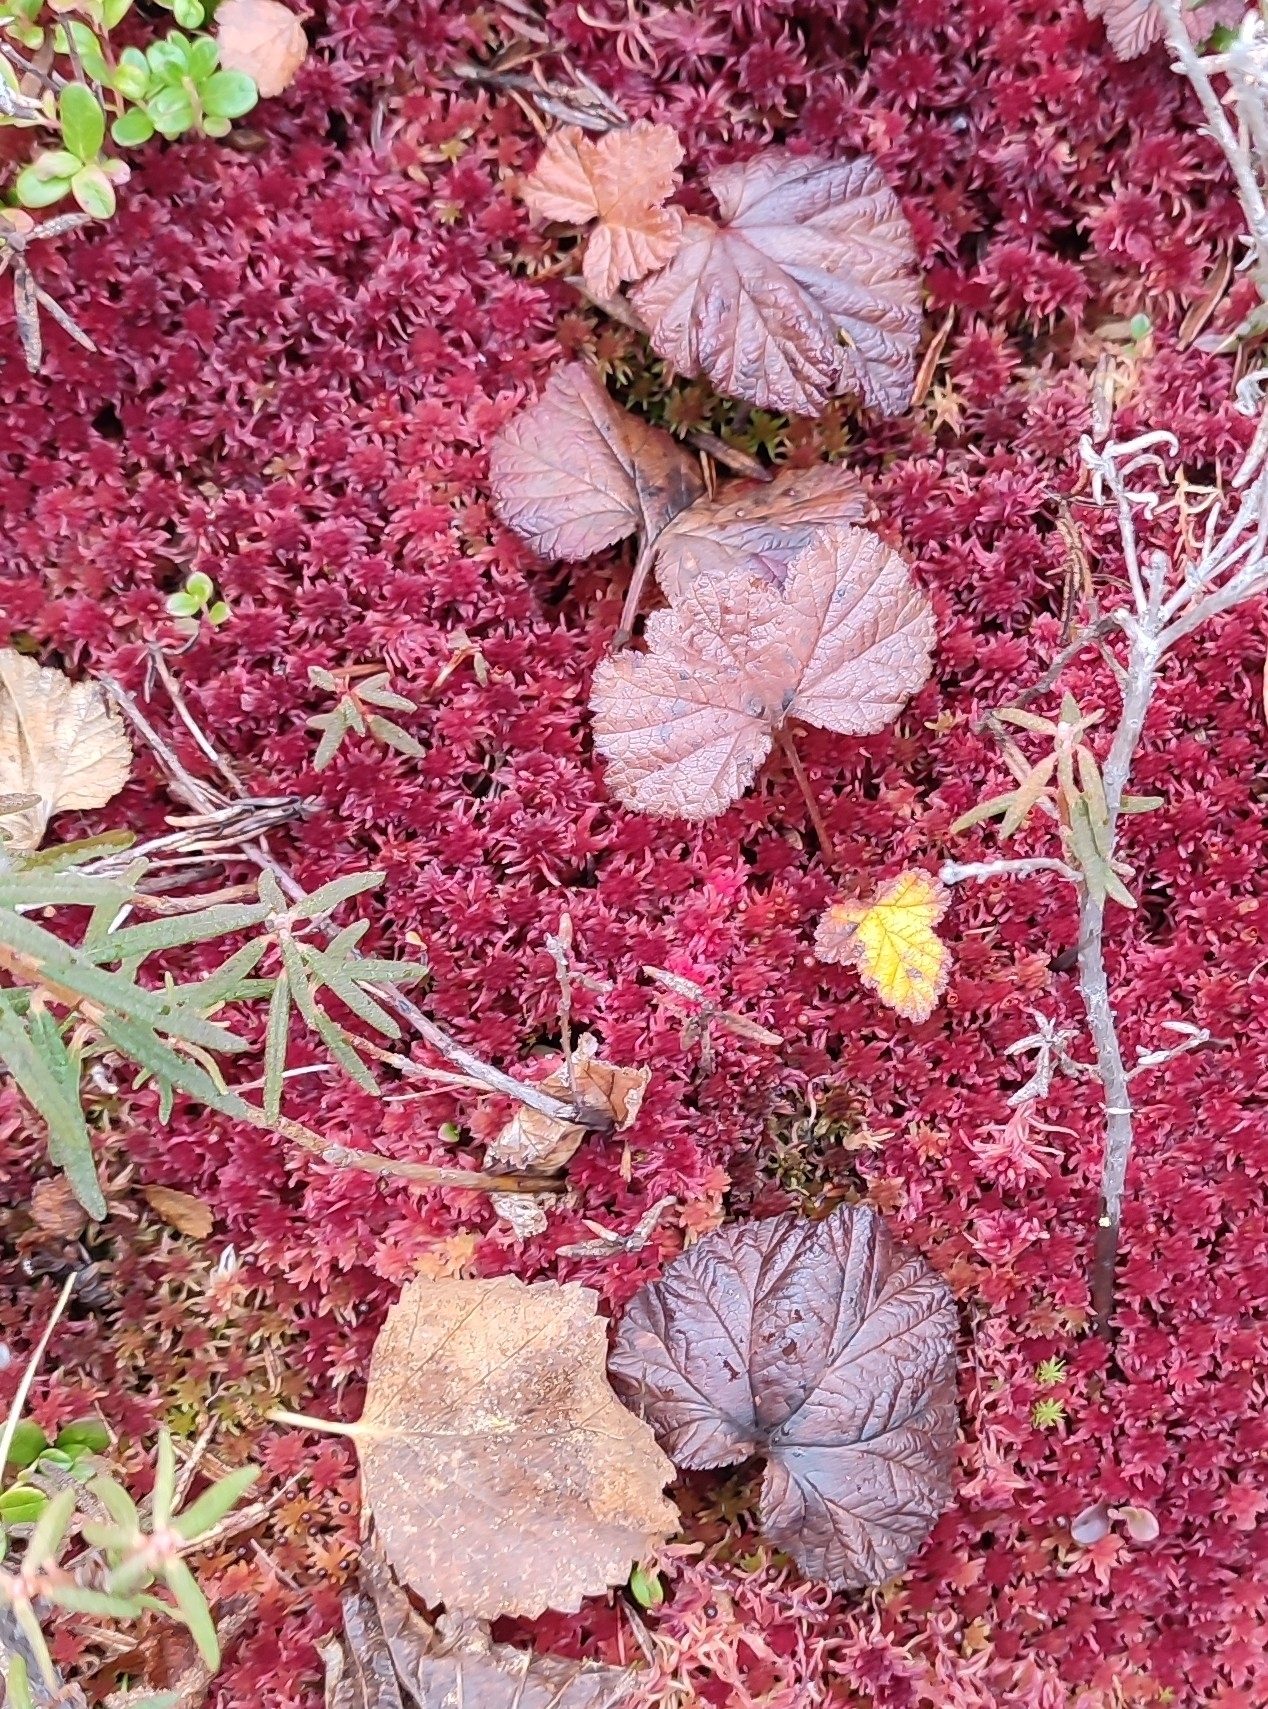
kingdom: Plantae
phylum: Tracheophyta
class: Magnoliopsida
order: Rosales
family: Rosaceae
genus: Rubus
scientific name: Rubus chamaemorus
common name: Cloudberry
